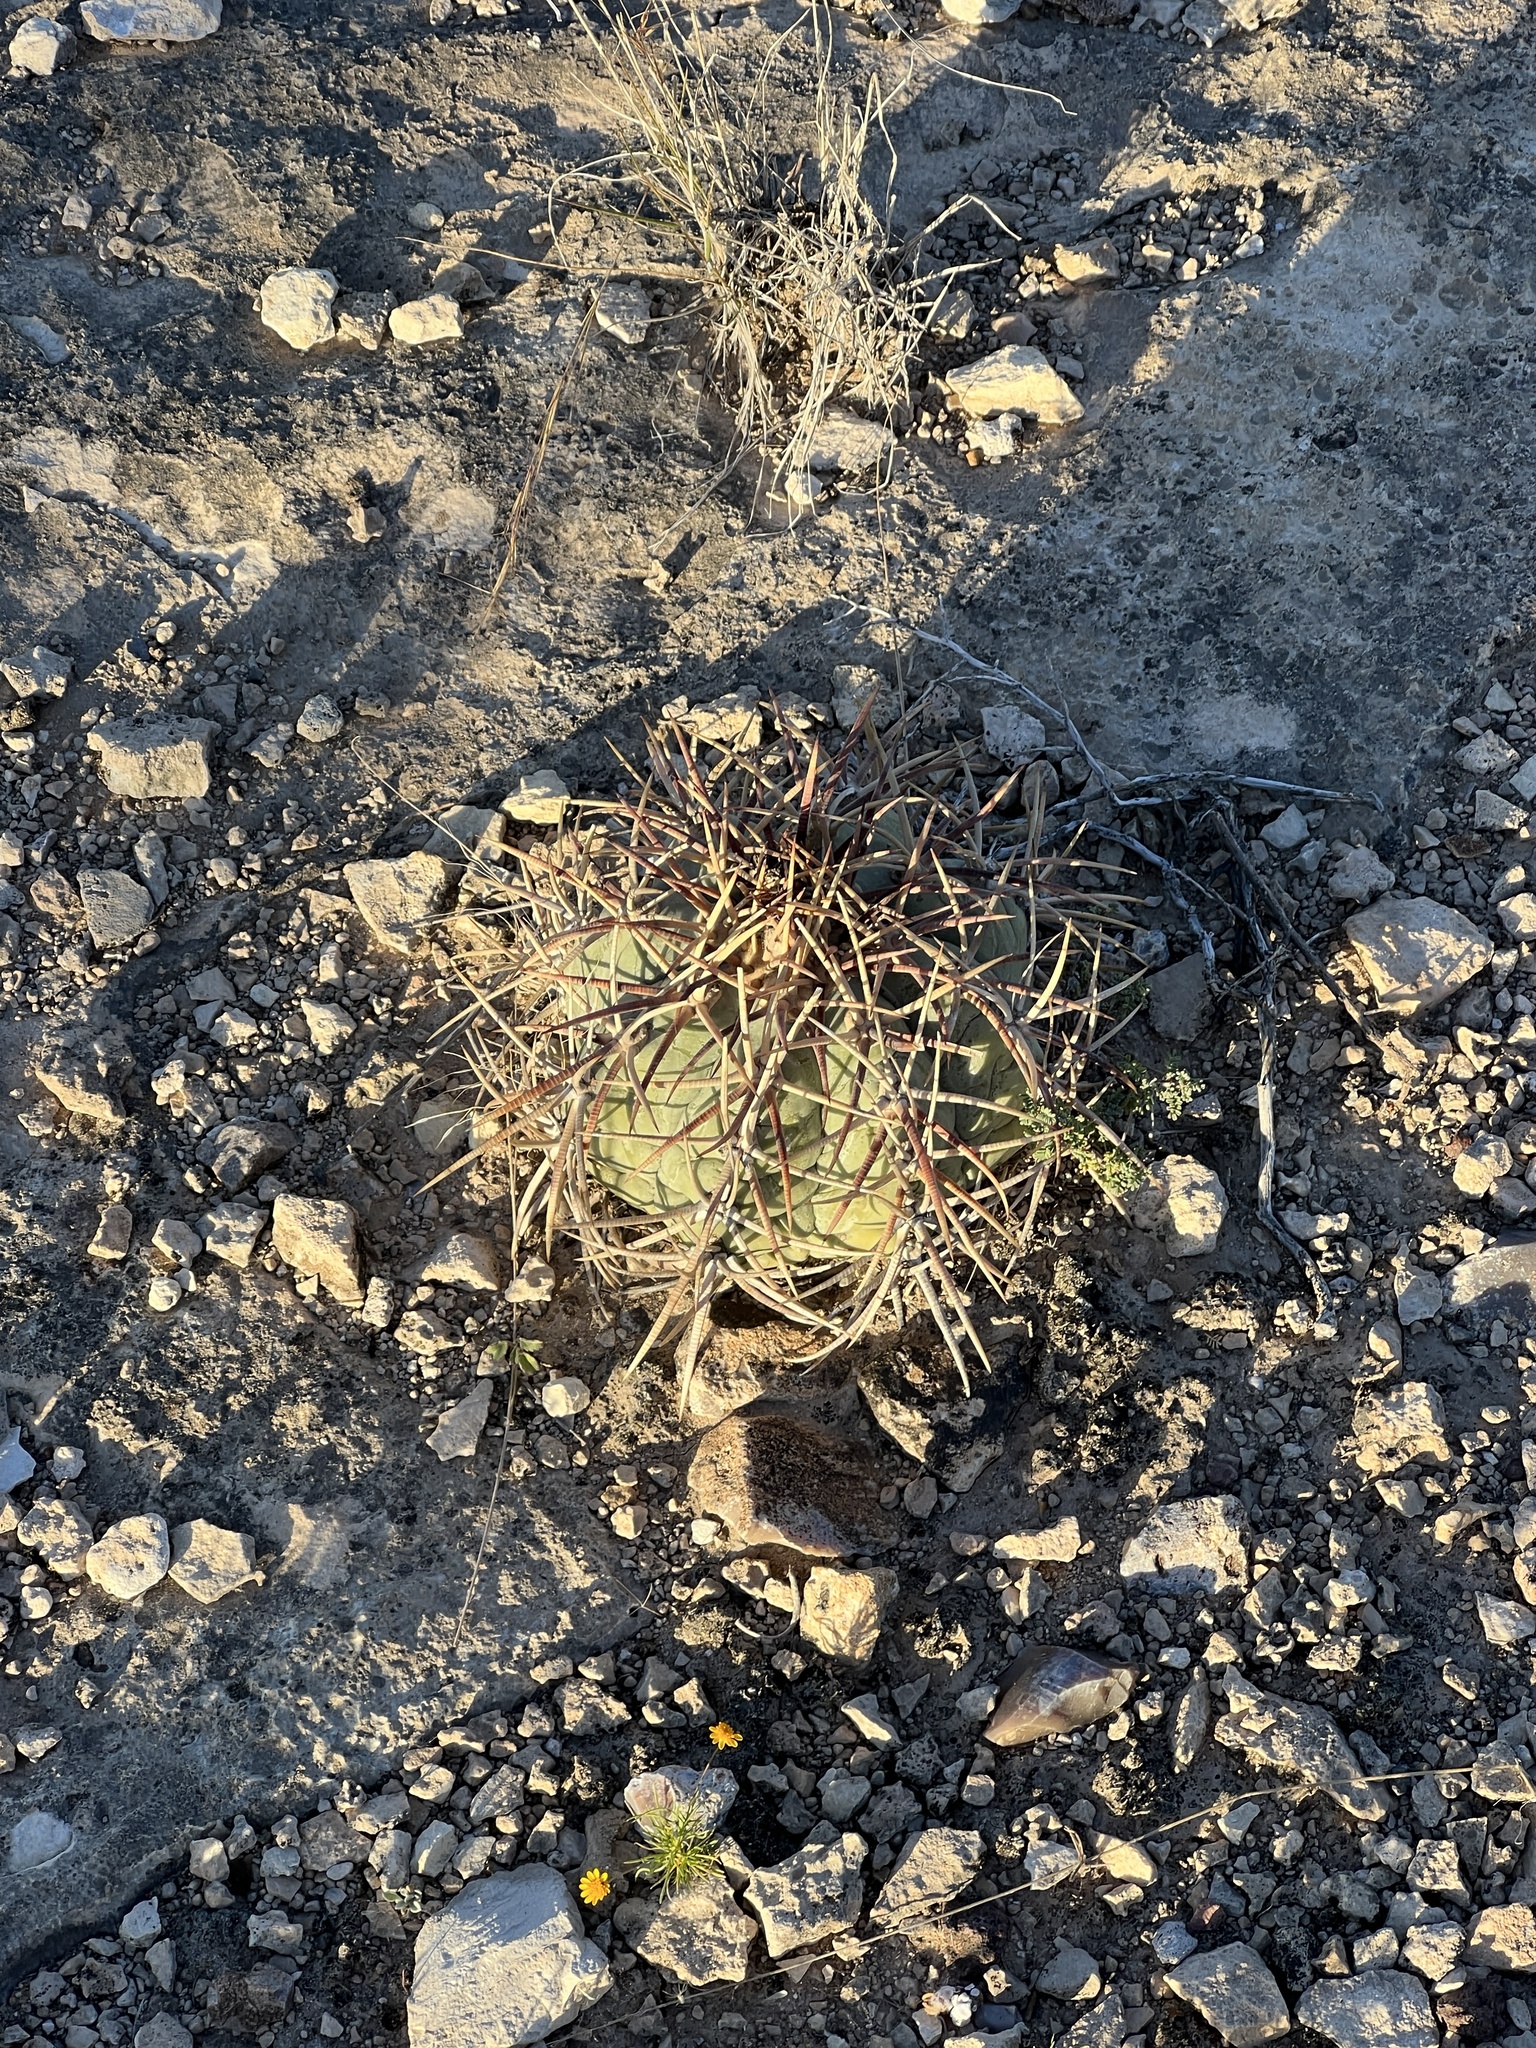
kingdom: Plantae
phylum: Tracheophyta
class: Magnoliopsida
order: Caryophyllales
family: Cactaceae
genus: Echinocactus
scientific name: Echinocactus horizonthalonius
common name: Devilshead
